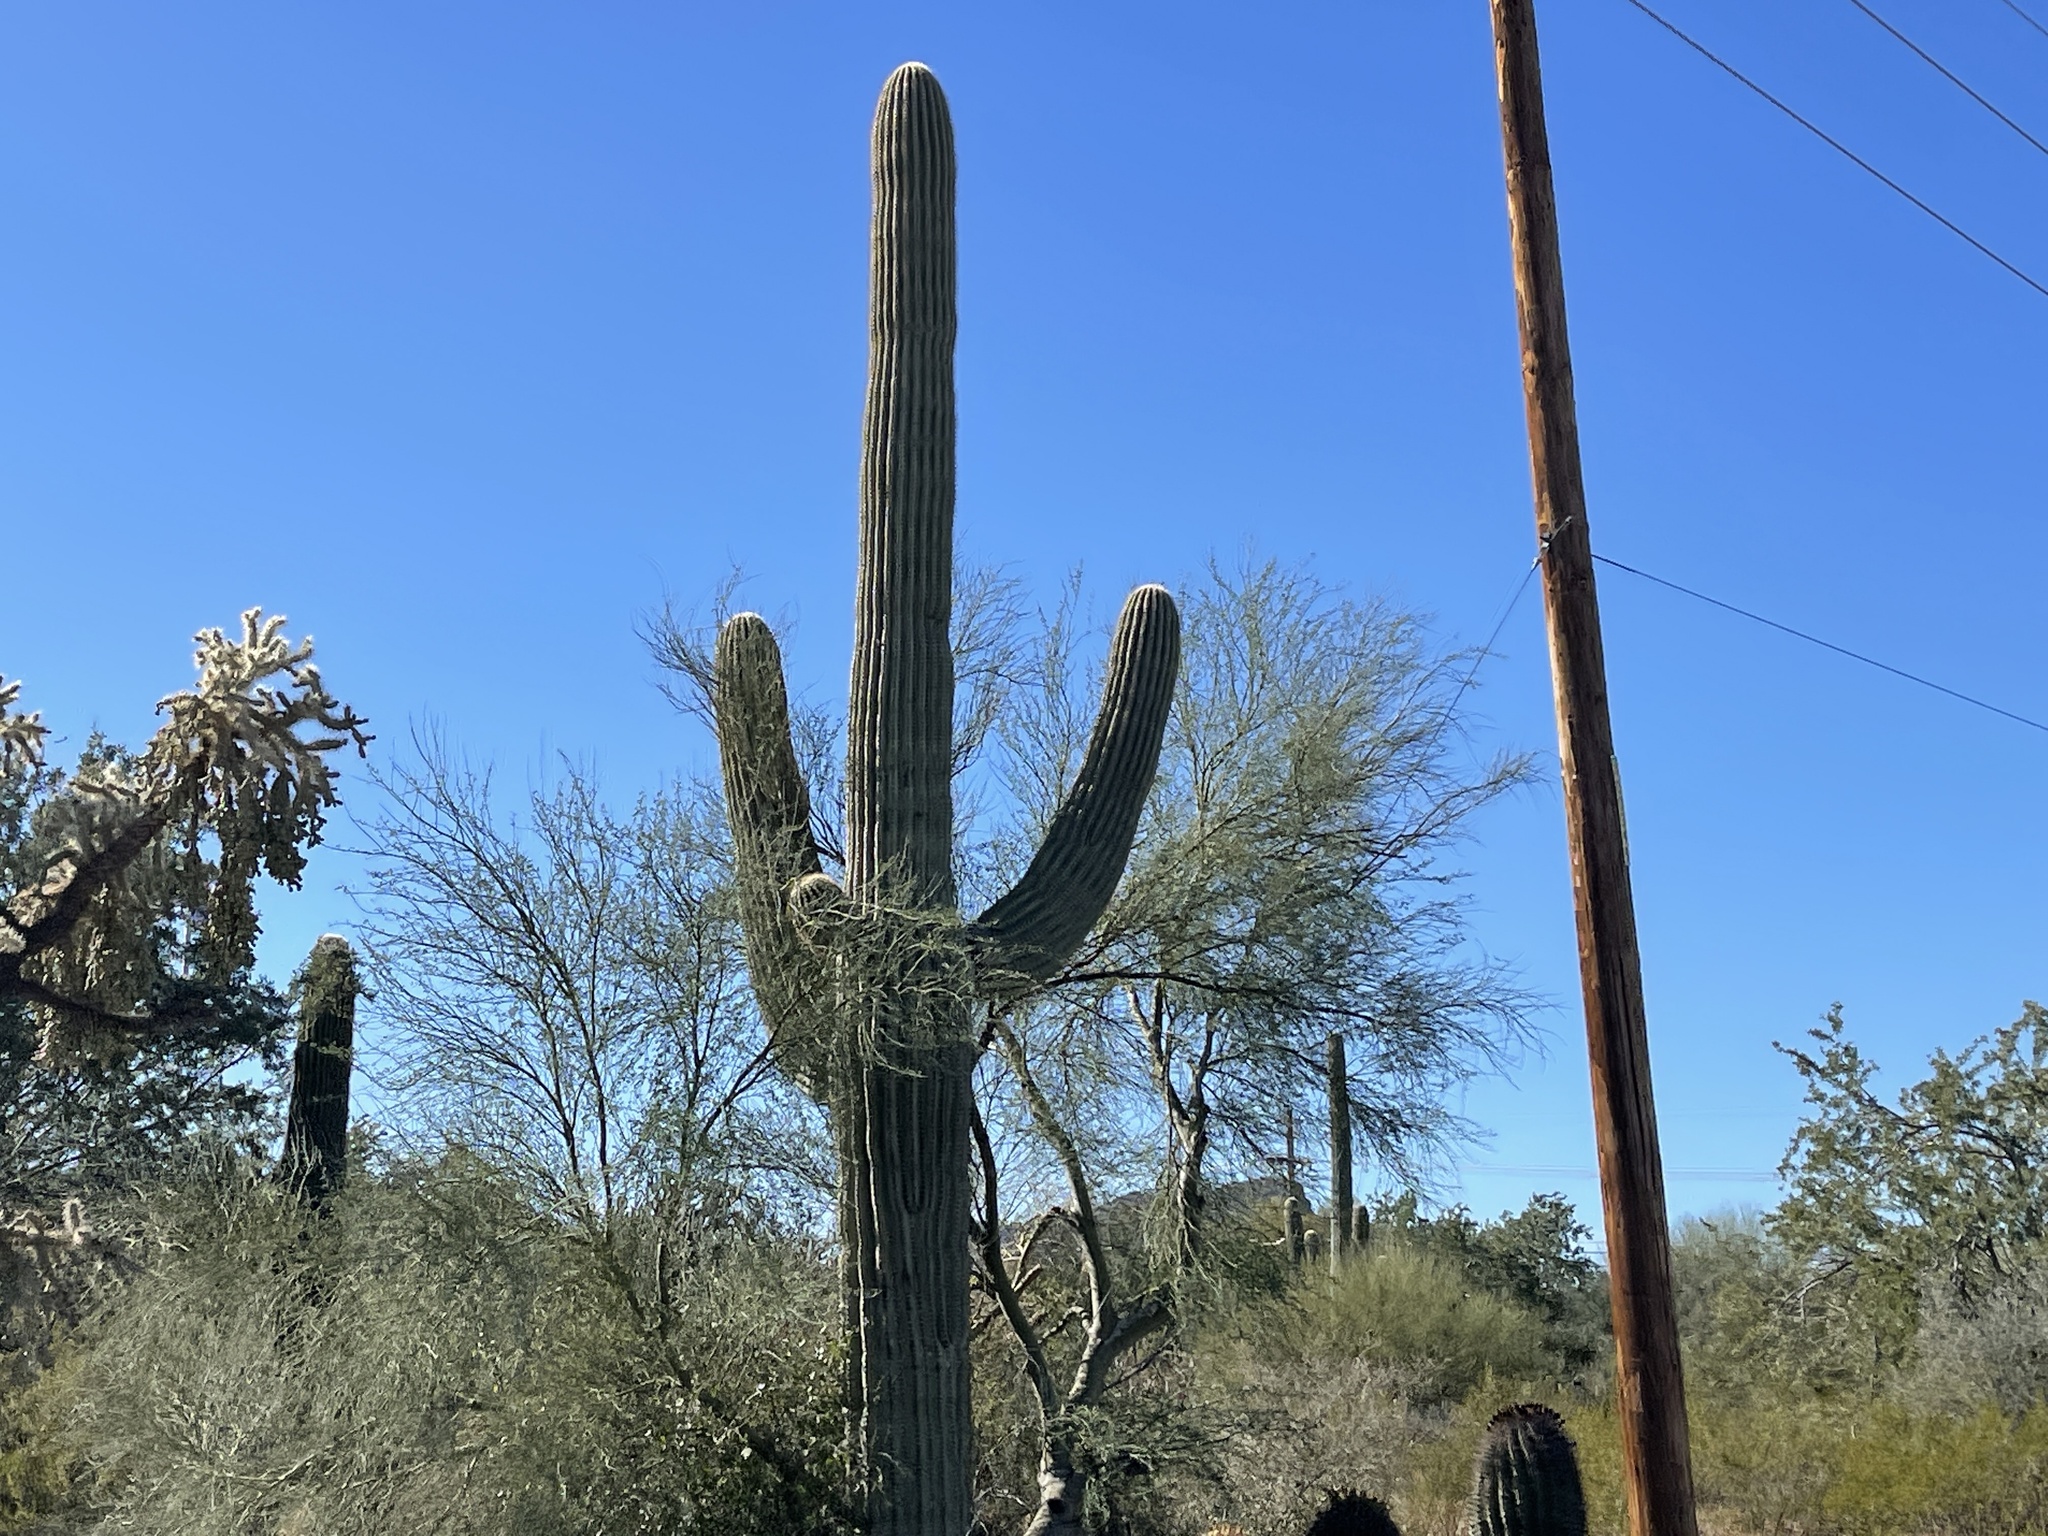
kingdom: Plantae
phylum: Tracheophyta
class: Magnoliopsida
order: Caryophyllales
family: Cactaceae
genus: Carnegiea
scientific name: Carnegiea gigantea
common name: Saguaro
